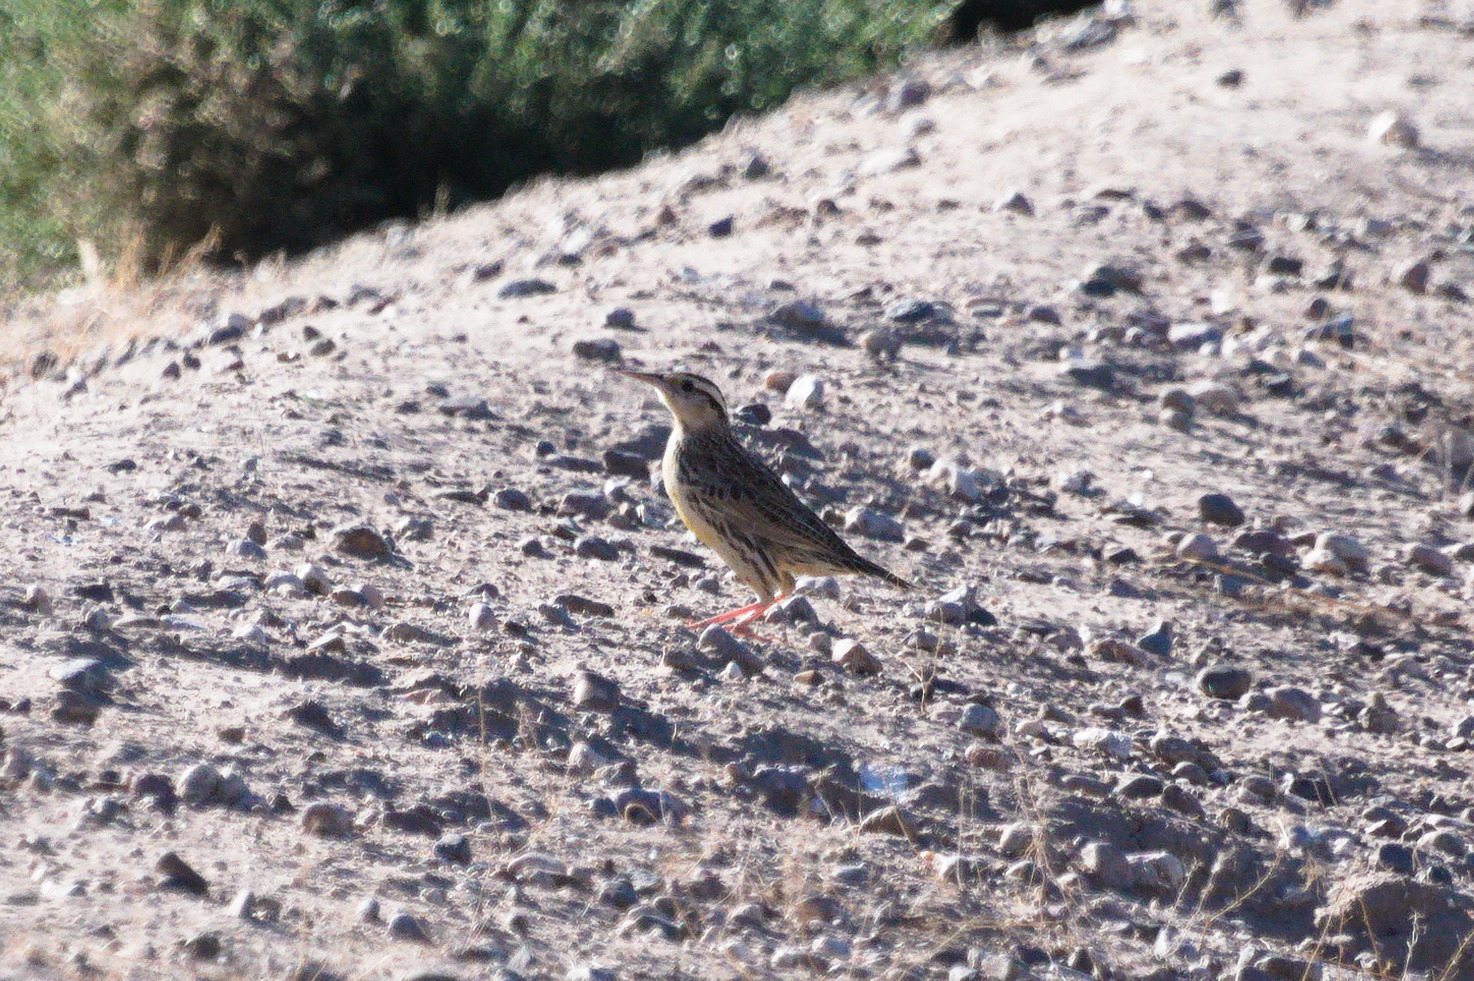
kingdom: Animalia
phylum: Chordata
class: Aves
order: Passeriformes
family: Icteridae
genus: Sturnella
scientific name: Sturnella lilianae
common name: Lilian's meadowlark
